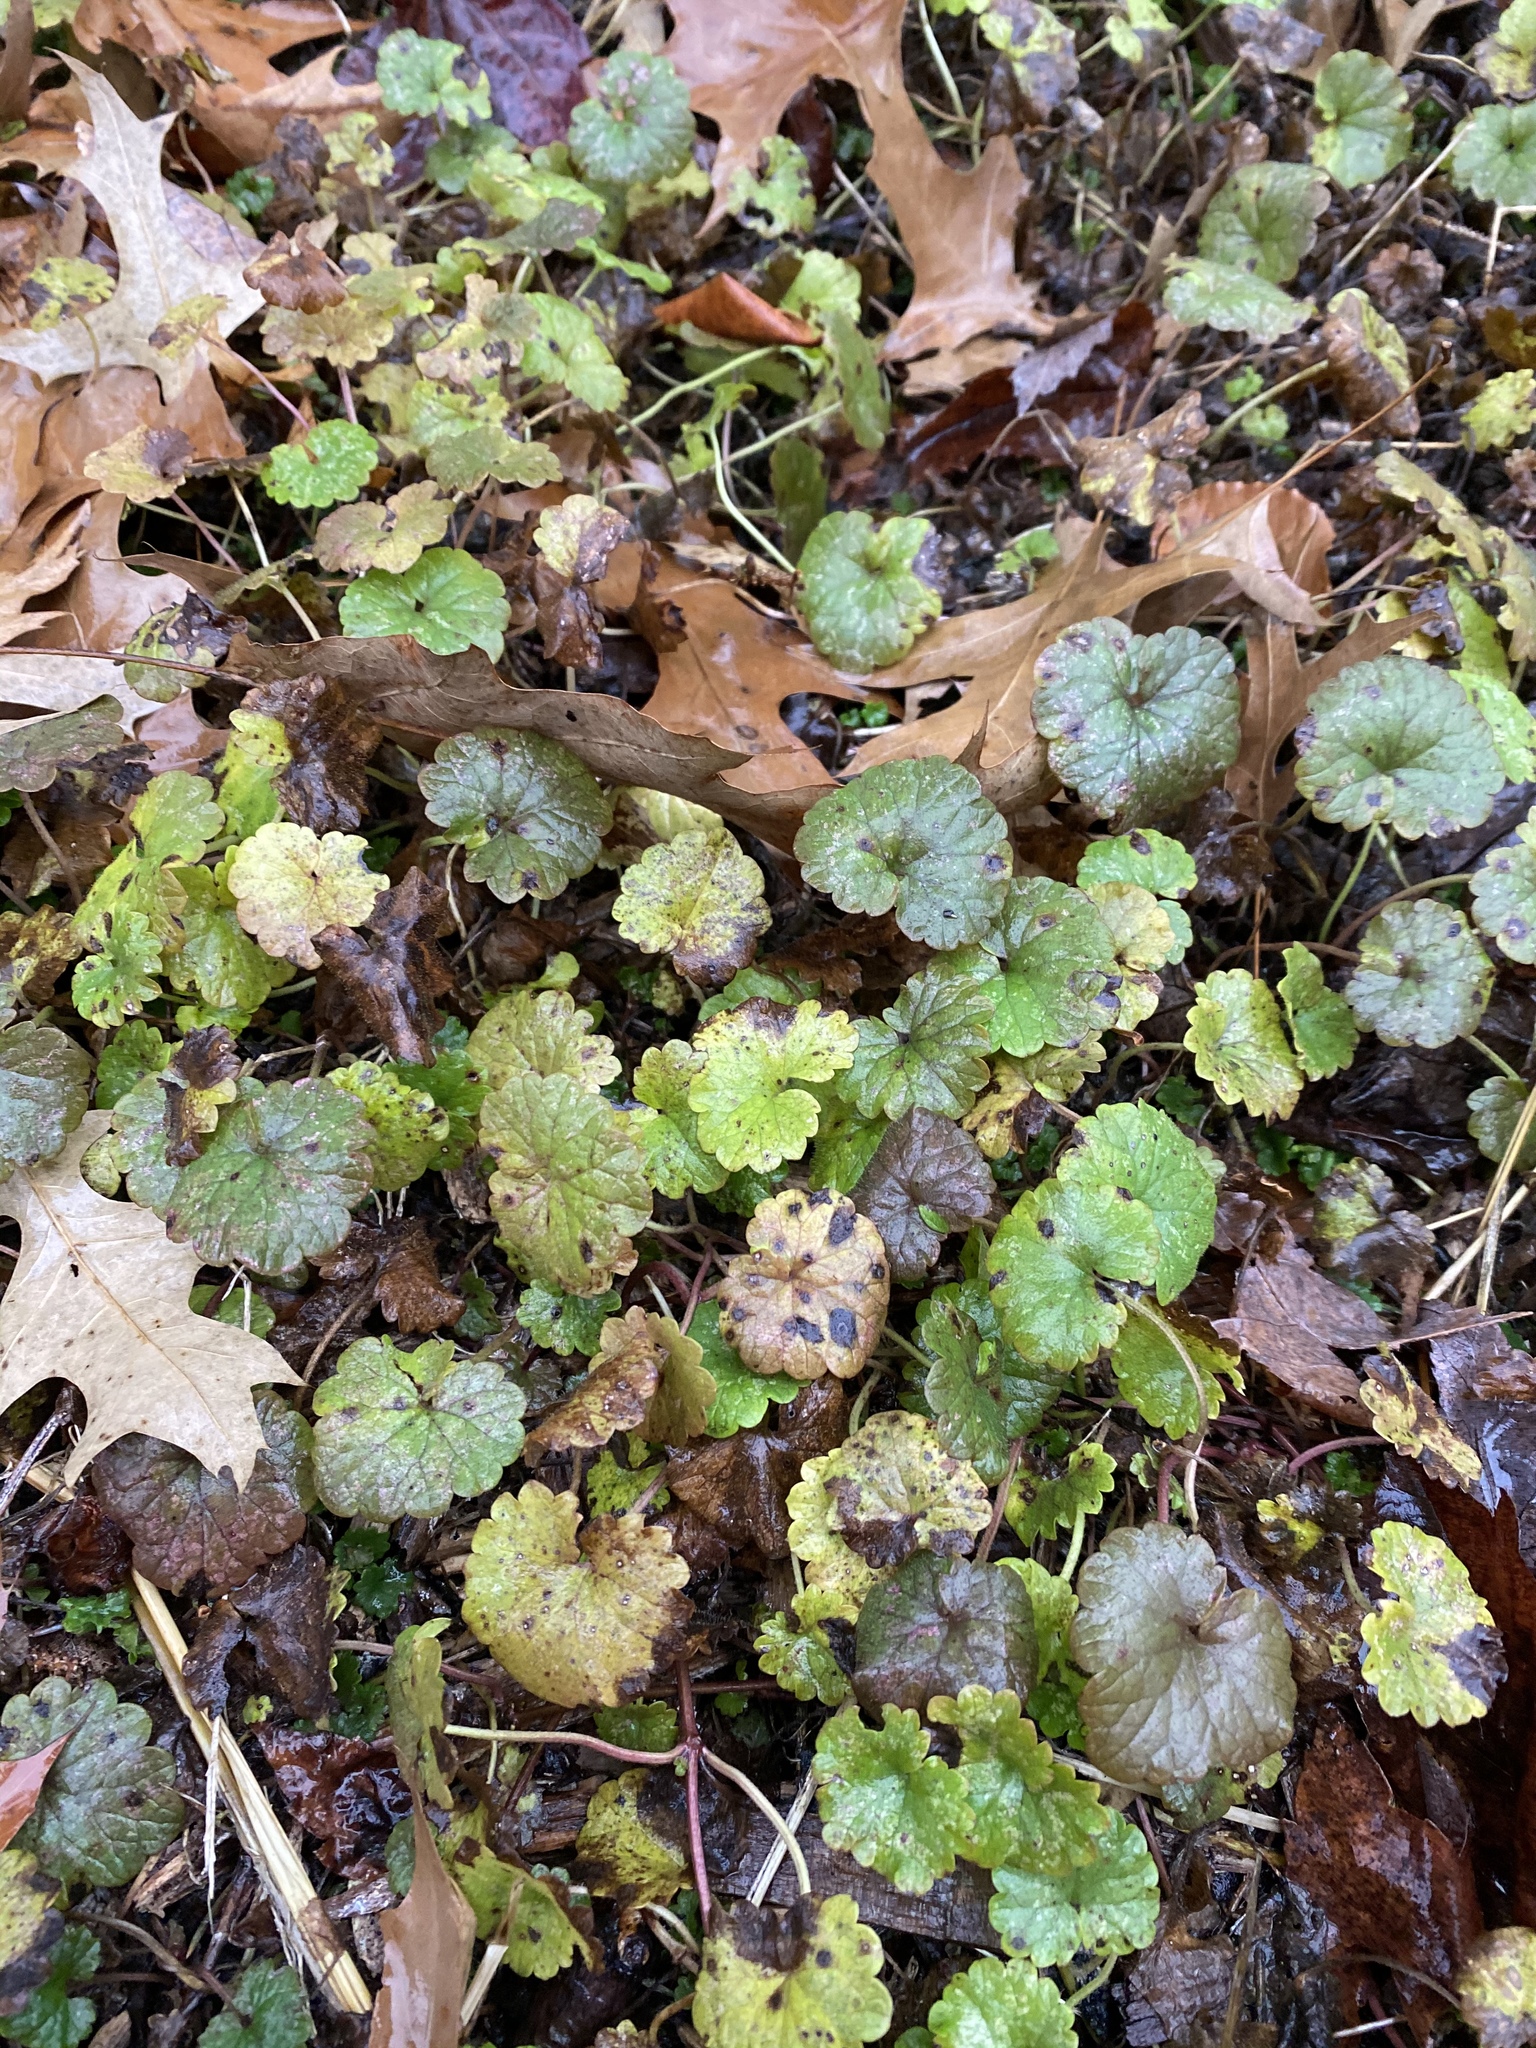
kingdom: Plantae
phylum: Tracheophyta
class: Magnoliopsida
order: Lamiales
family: Lamiaceae
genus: Glechoma
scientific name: Glechoma hederacea
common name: Ground ivy
